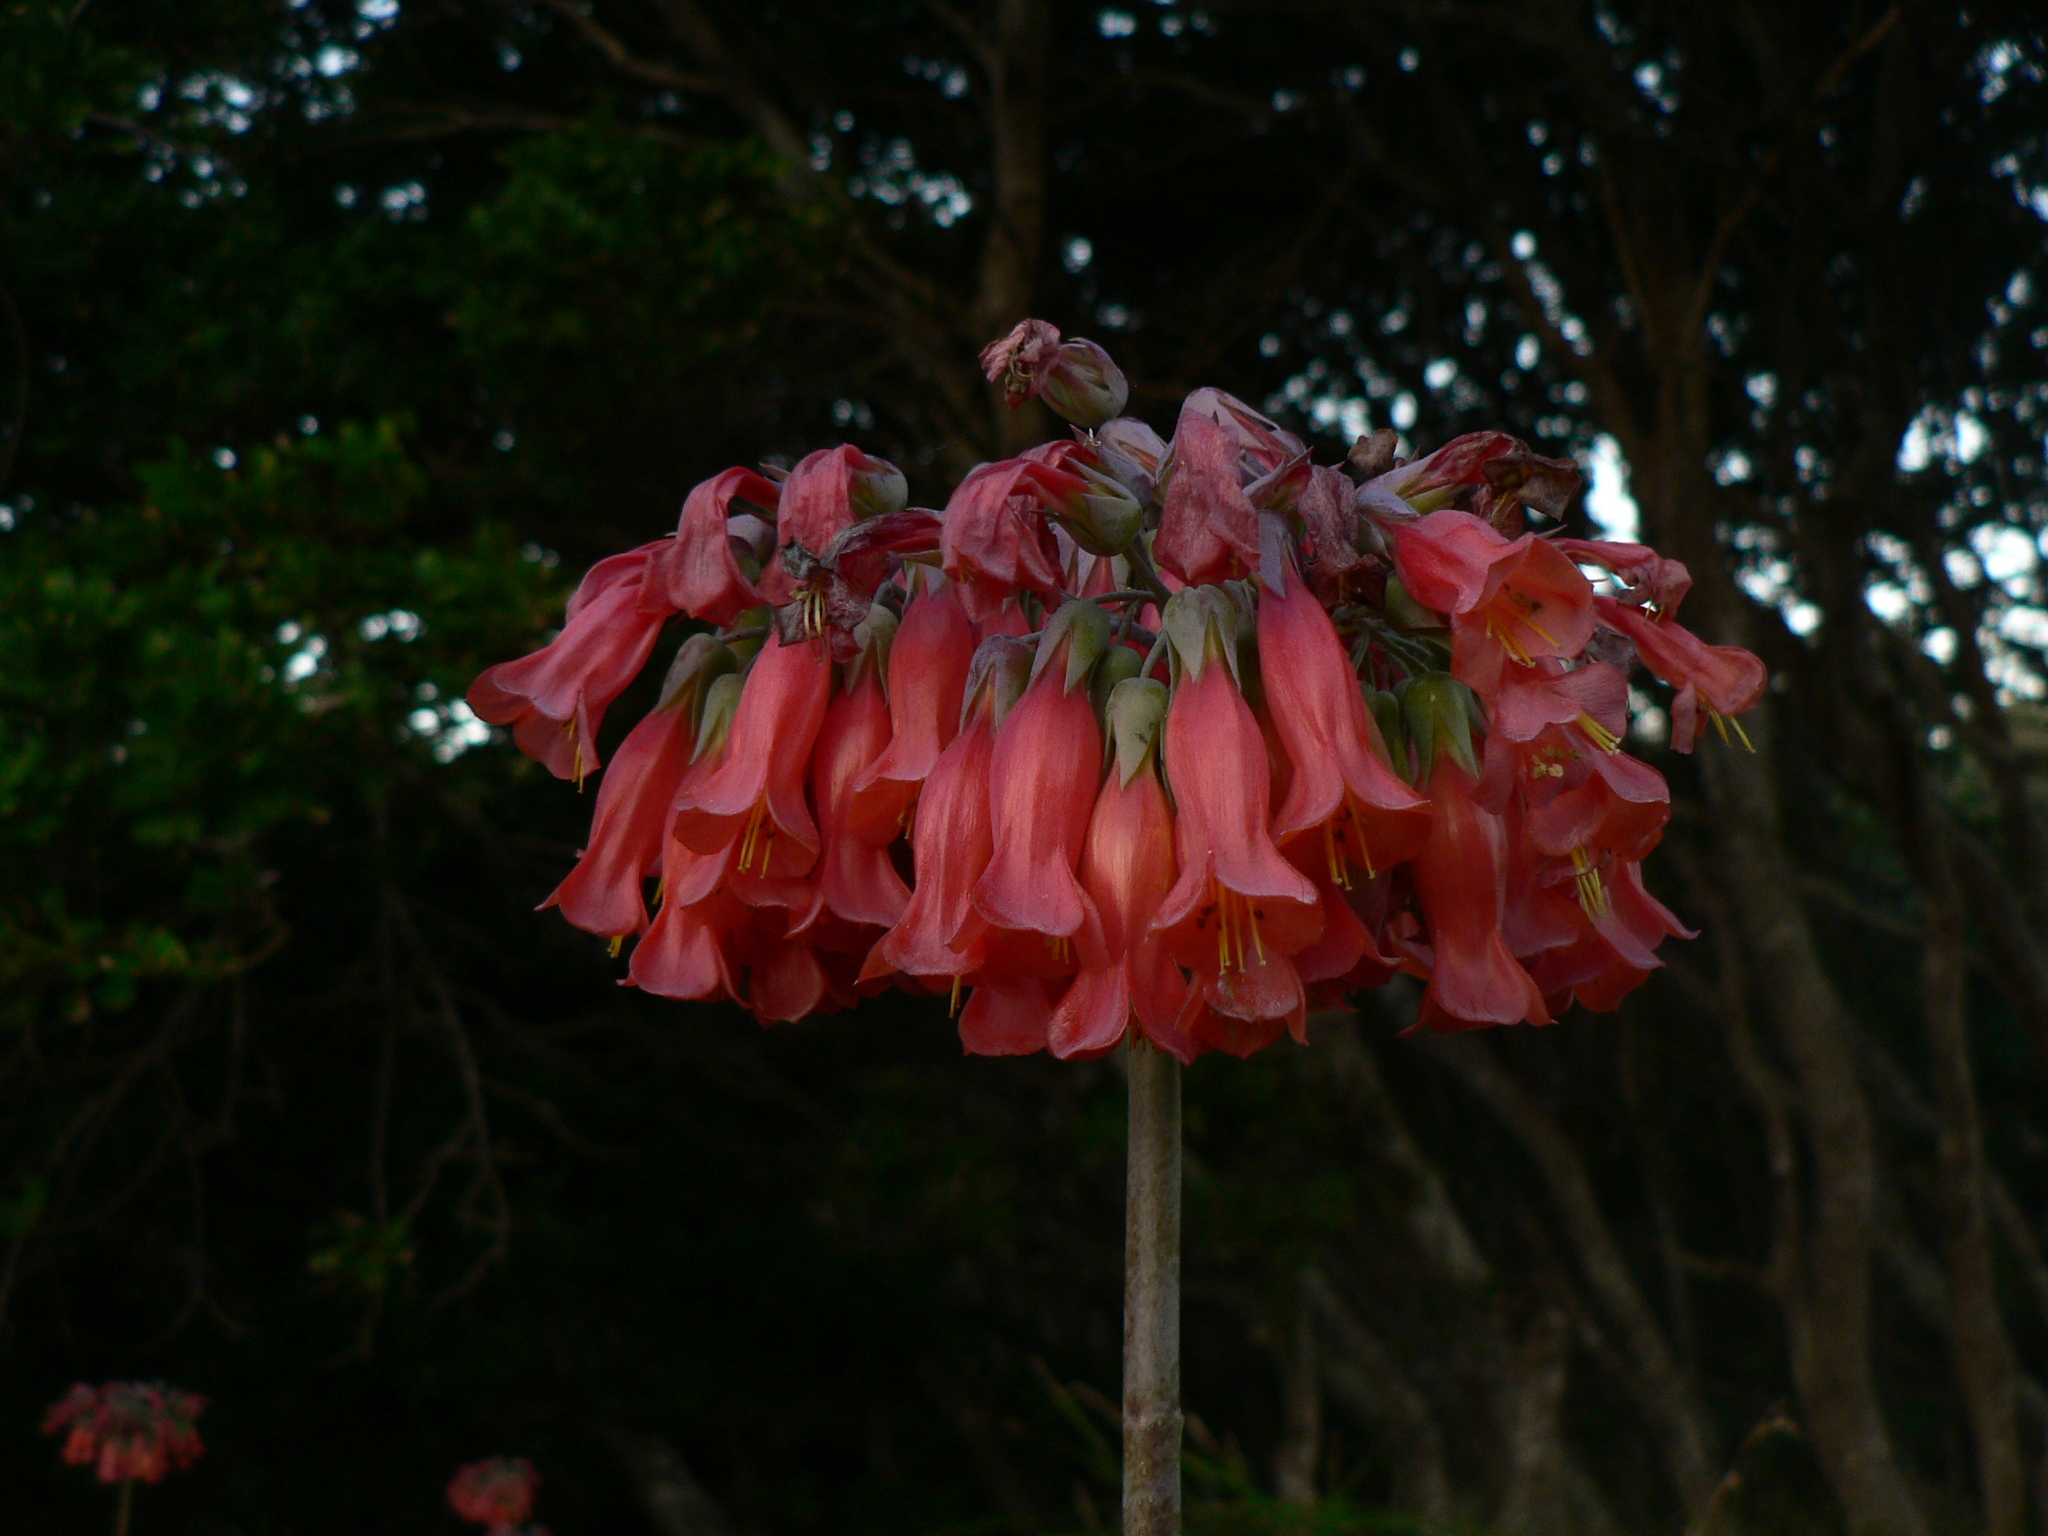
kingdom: Plantae
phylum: Tracheophyta
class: Magnoliopsida
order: Saxifragales
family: Crassulaceae
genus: Kalanchoe
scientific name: Kalanchoe delagoensis
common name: Chandelier plant
